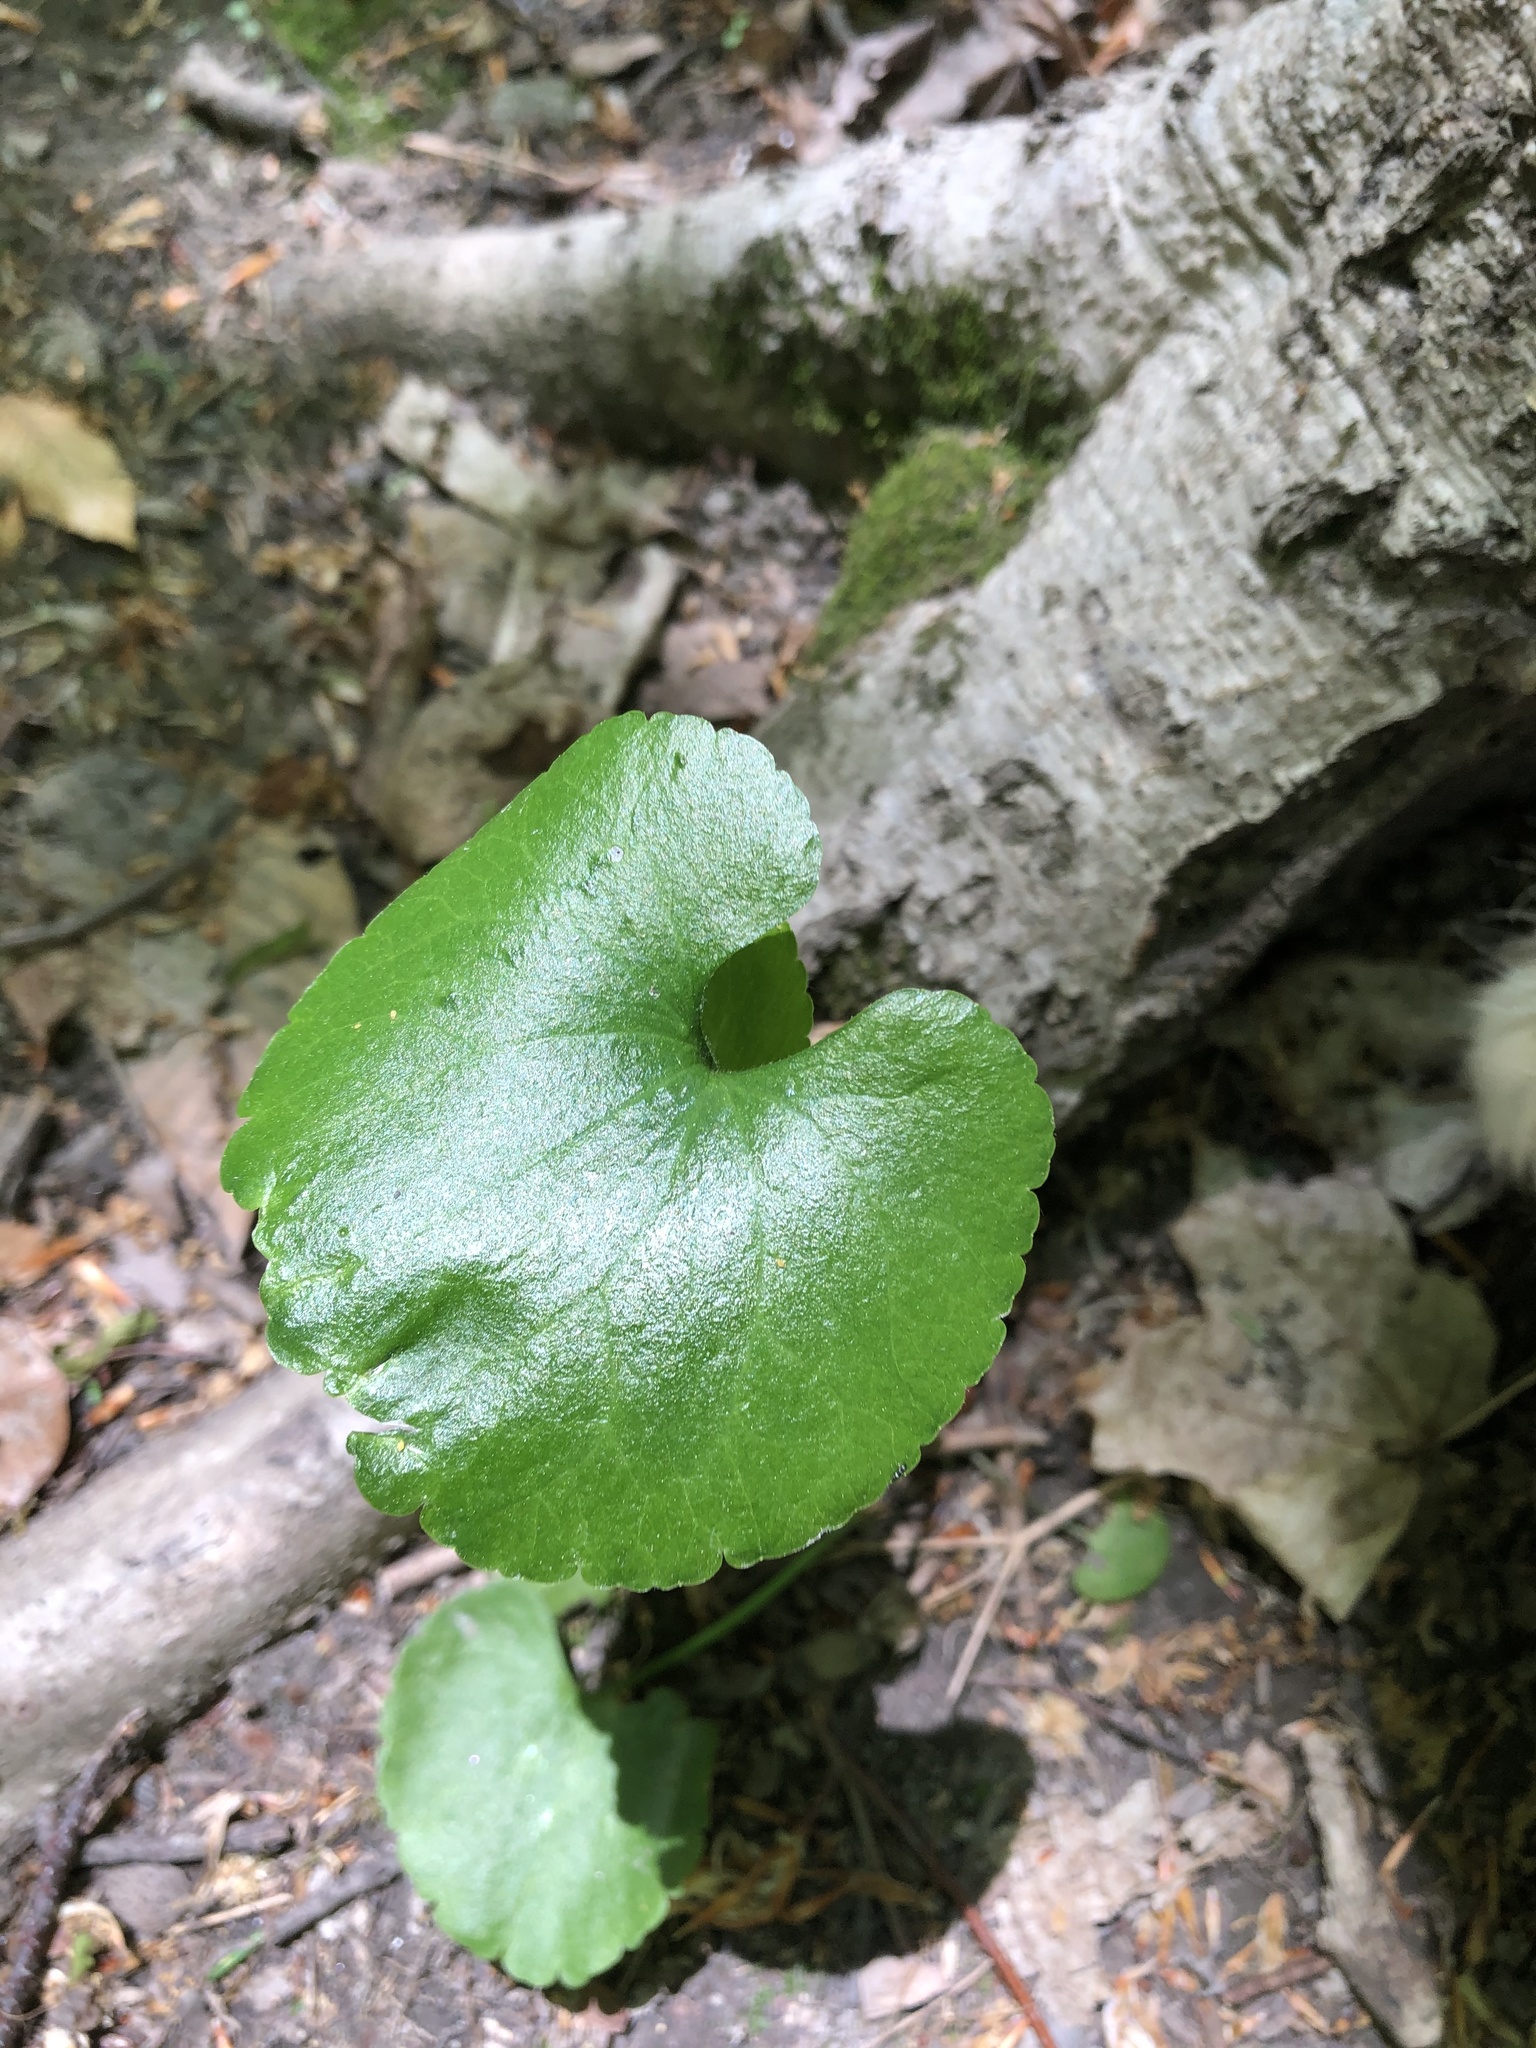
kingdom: Plantae
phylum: Tracheophyta
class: Magnoliopsida
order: Ranunculales
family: Ranunculaceae
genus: Ranunculus
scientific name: Ranunculus abortivus
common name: Early wood buttercup
